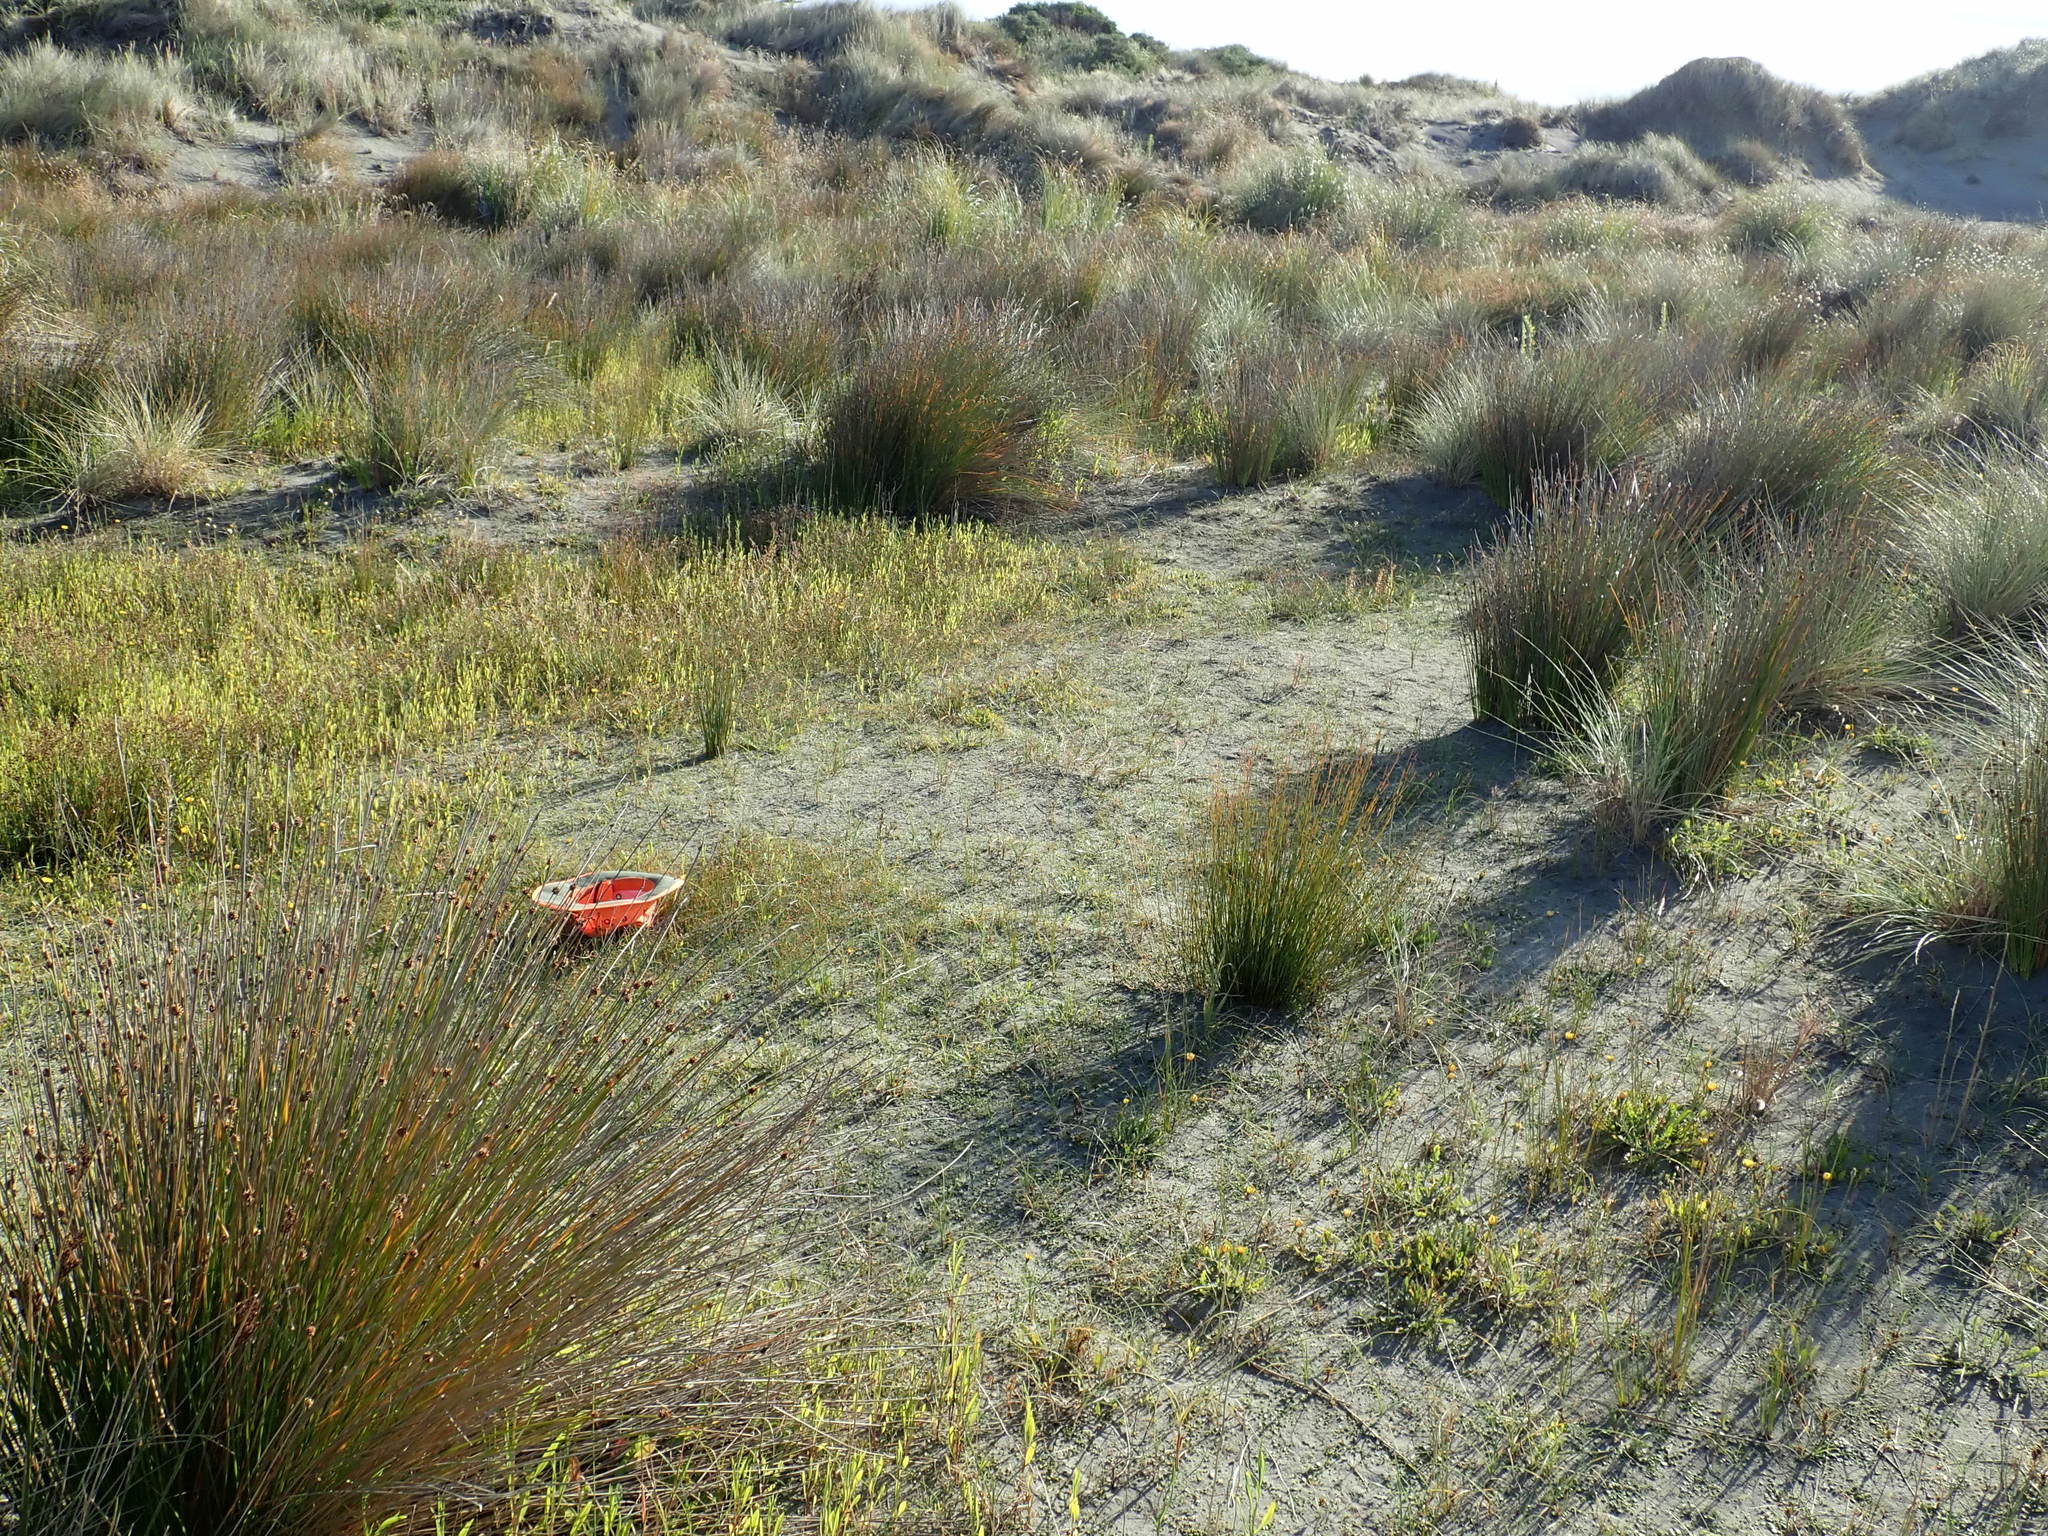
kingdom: Plantae
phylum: Tracheophyta
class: Magnoliopsida
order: Asterales
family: Campanulaceae
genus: Lobelia
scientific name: Lobelia anceps
